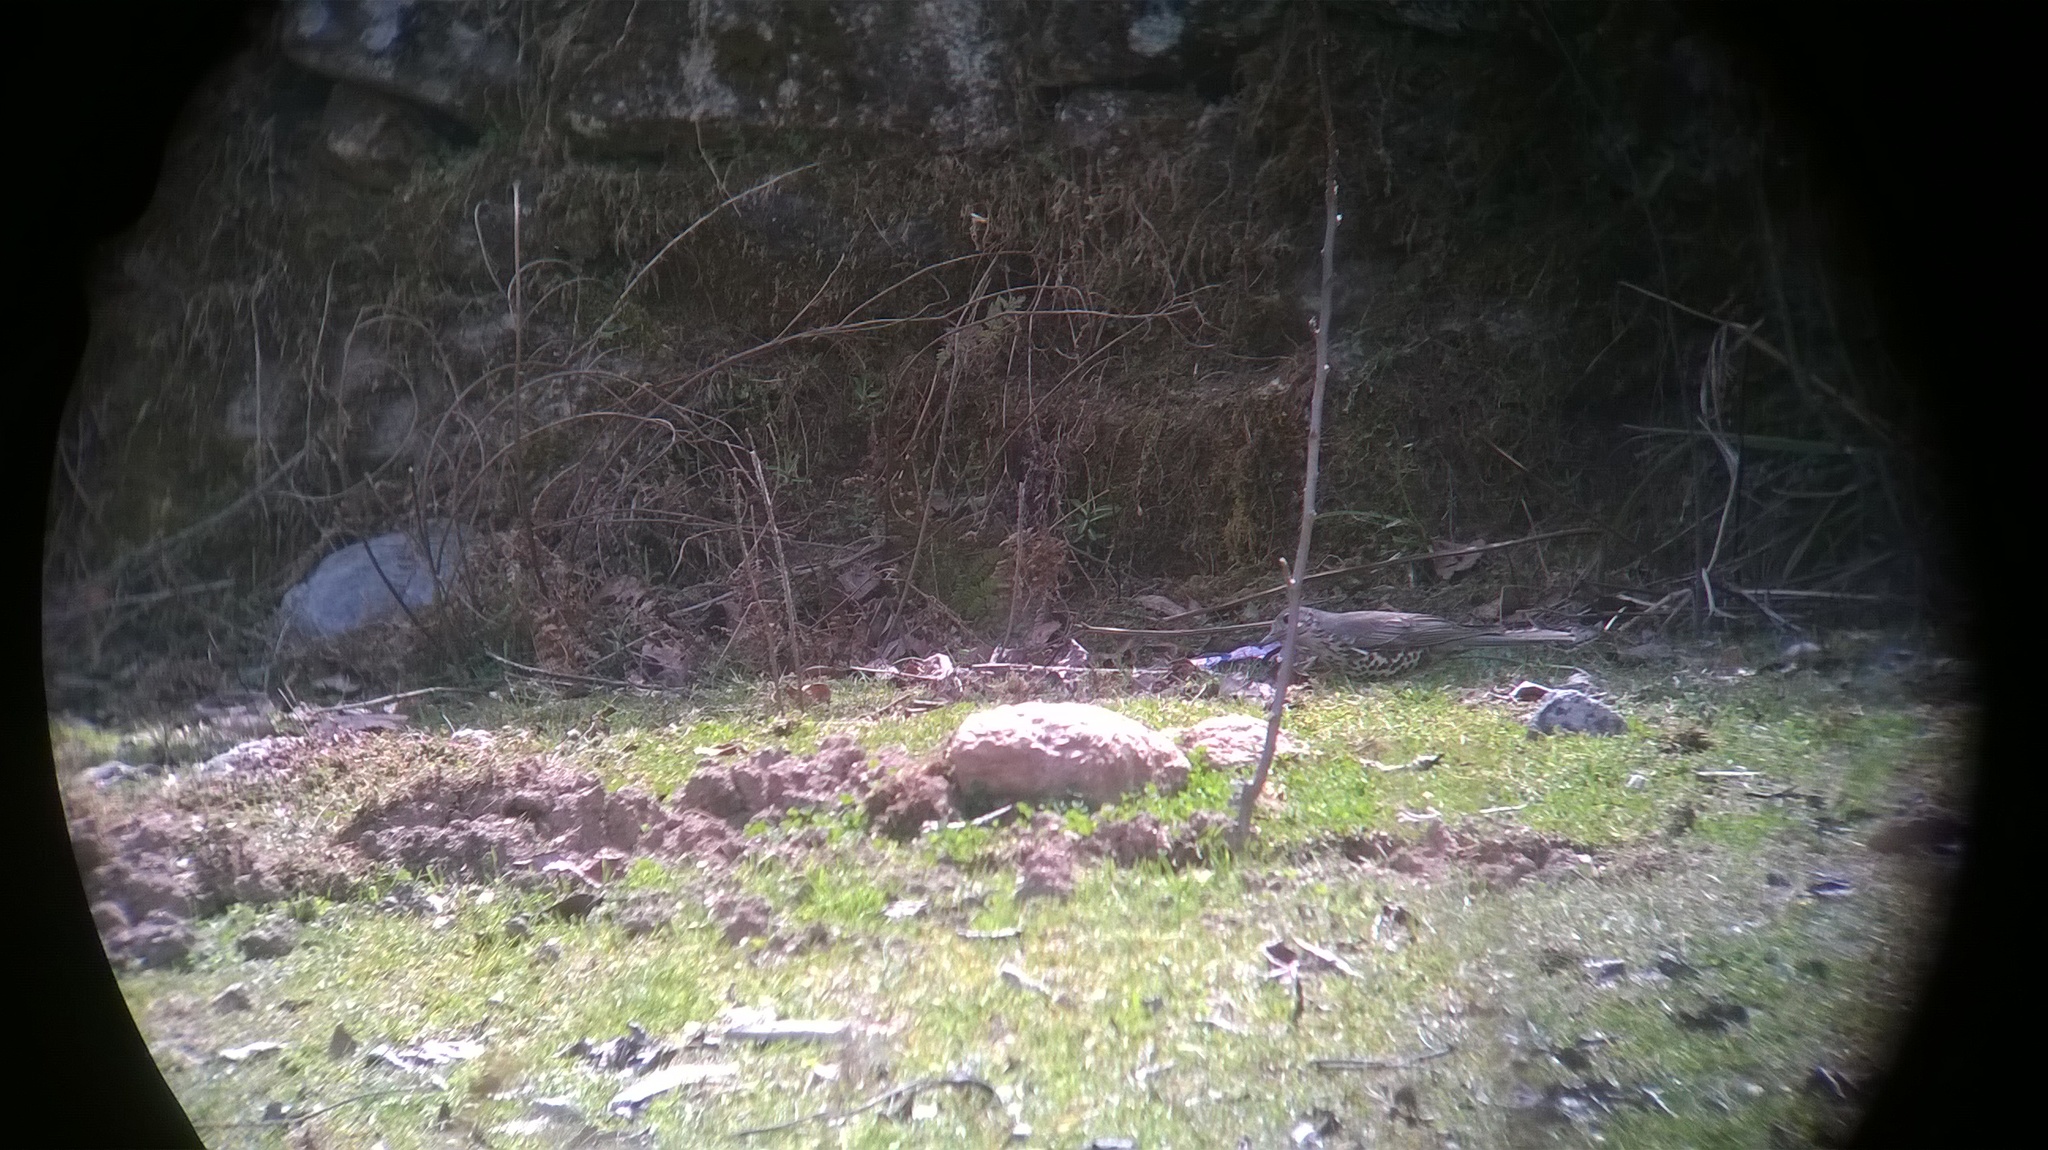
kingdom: Animalia
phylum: Chordata
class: Aves
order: Passeriformes
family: Turdidae
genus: Turdus
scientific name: Turdus viscivorus
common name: Mistle thrush
